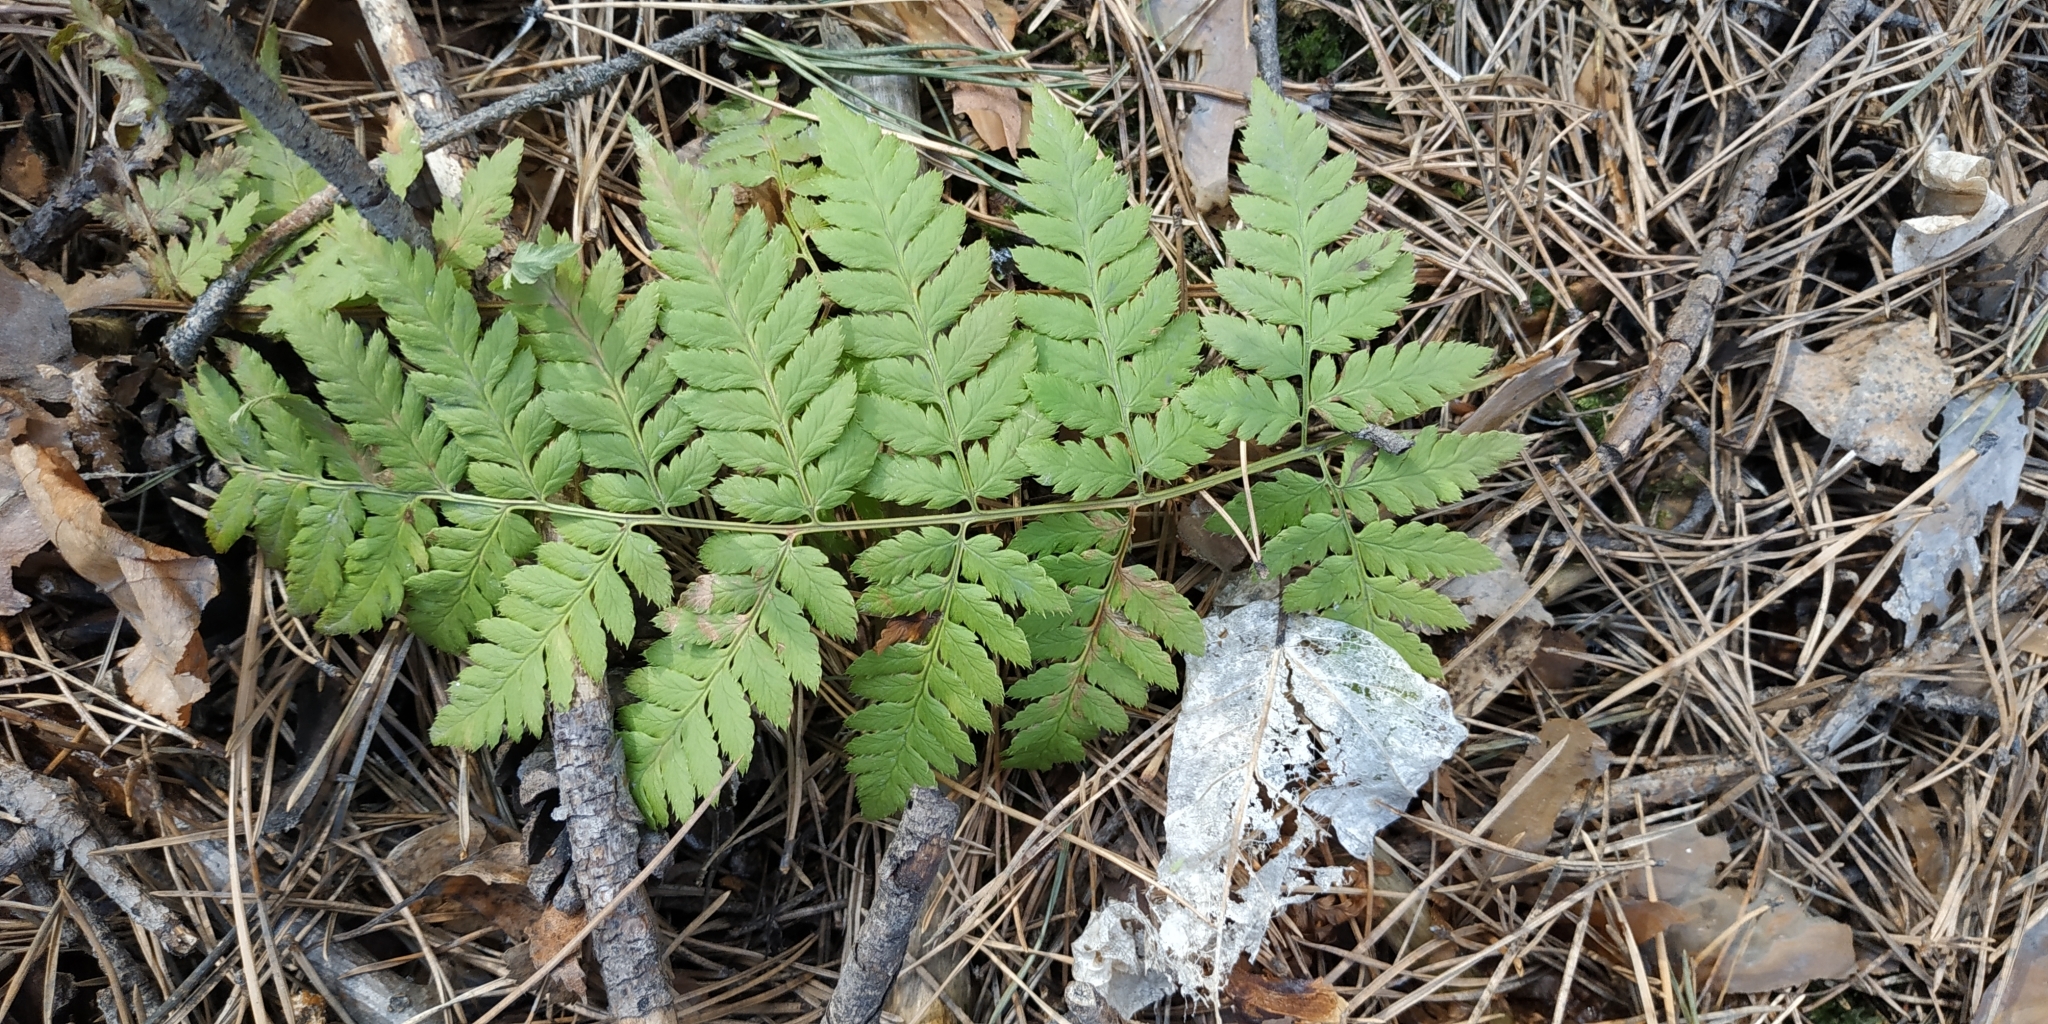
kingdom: Plantae
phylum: Tracheophyta
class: Polypodiopsida
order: Polypodiales
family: Dryopteridaceae
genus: Dryopteris
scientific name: Dryopteris carthusiana
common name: Narrow buckler-fern
